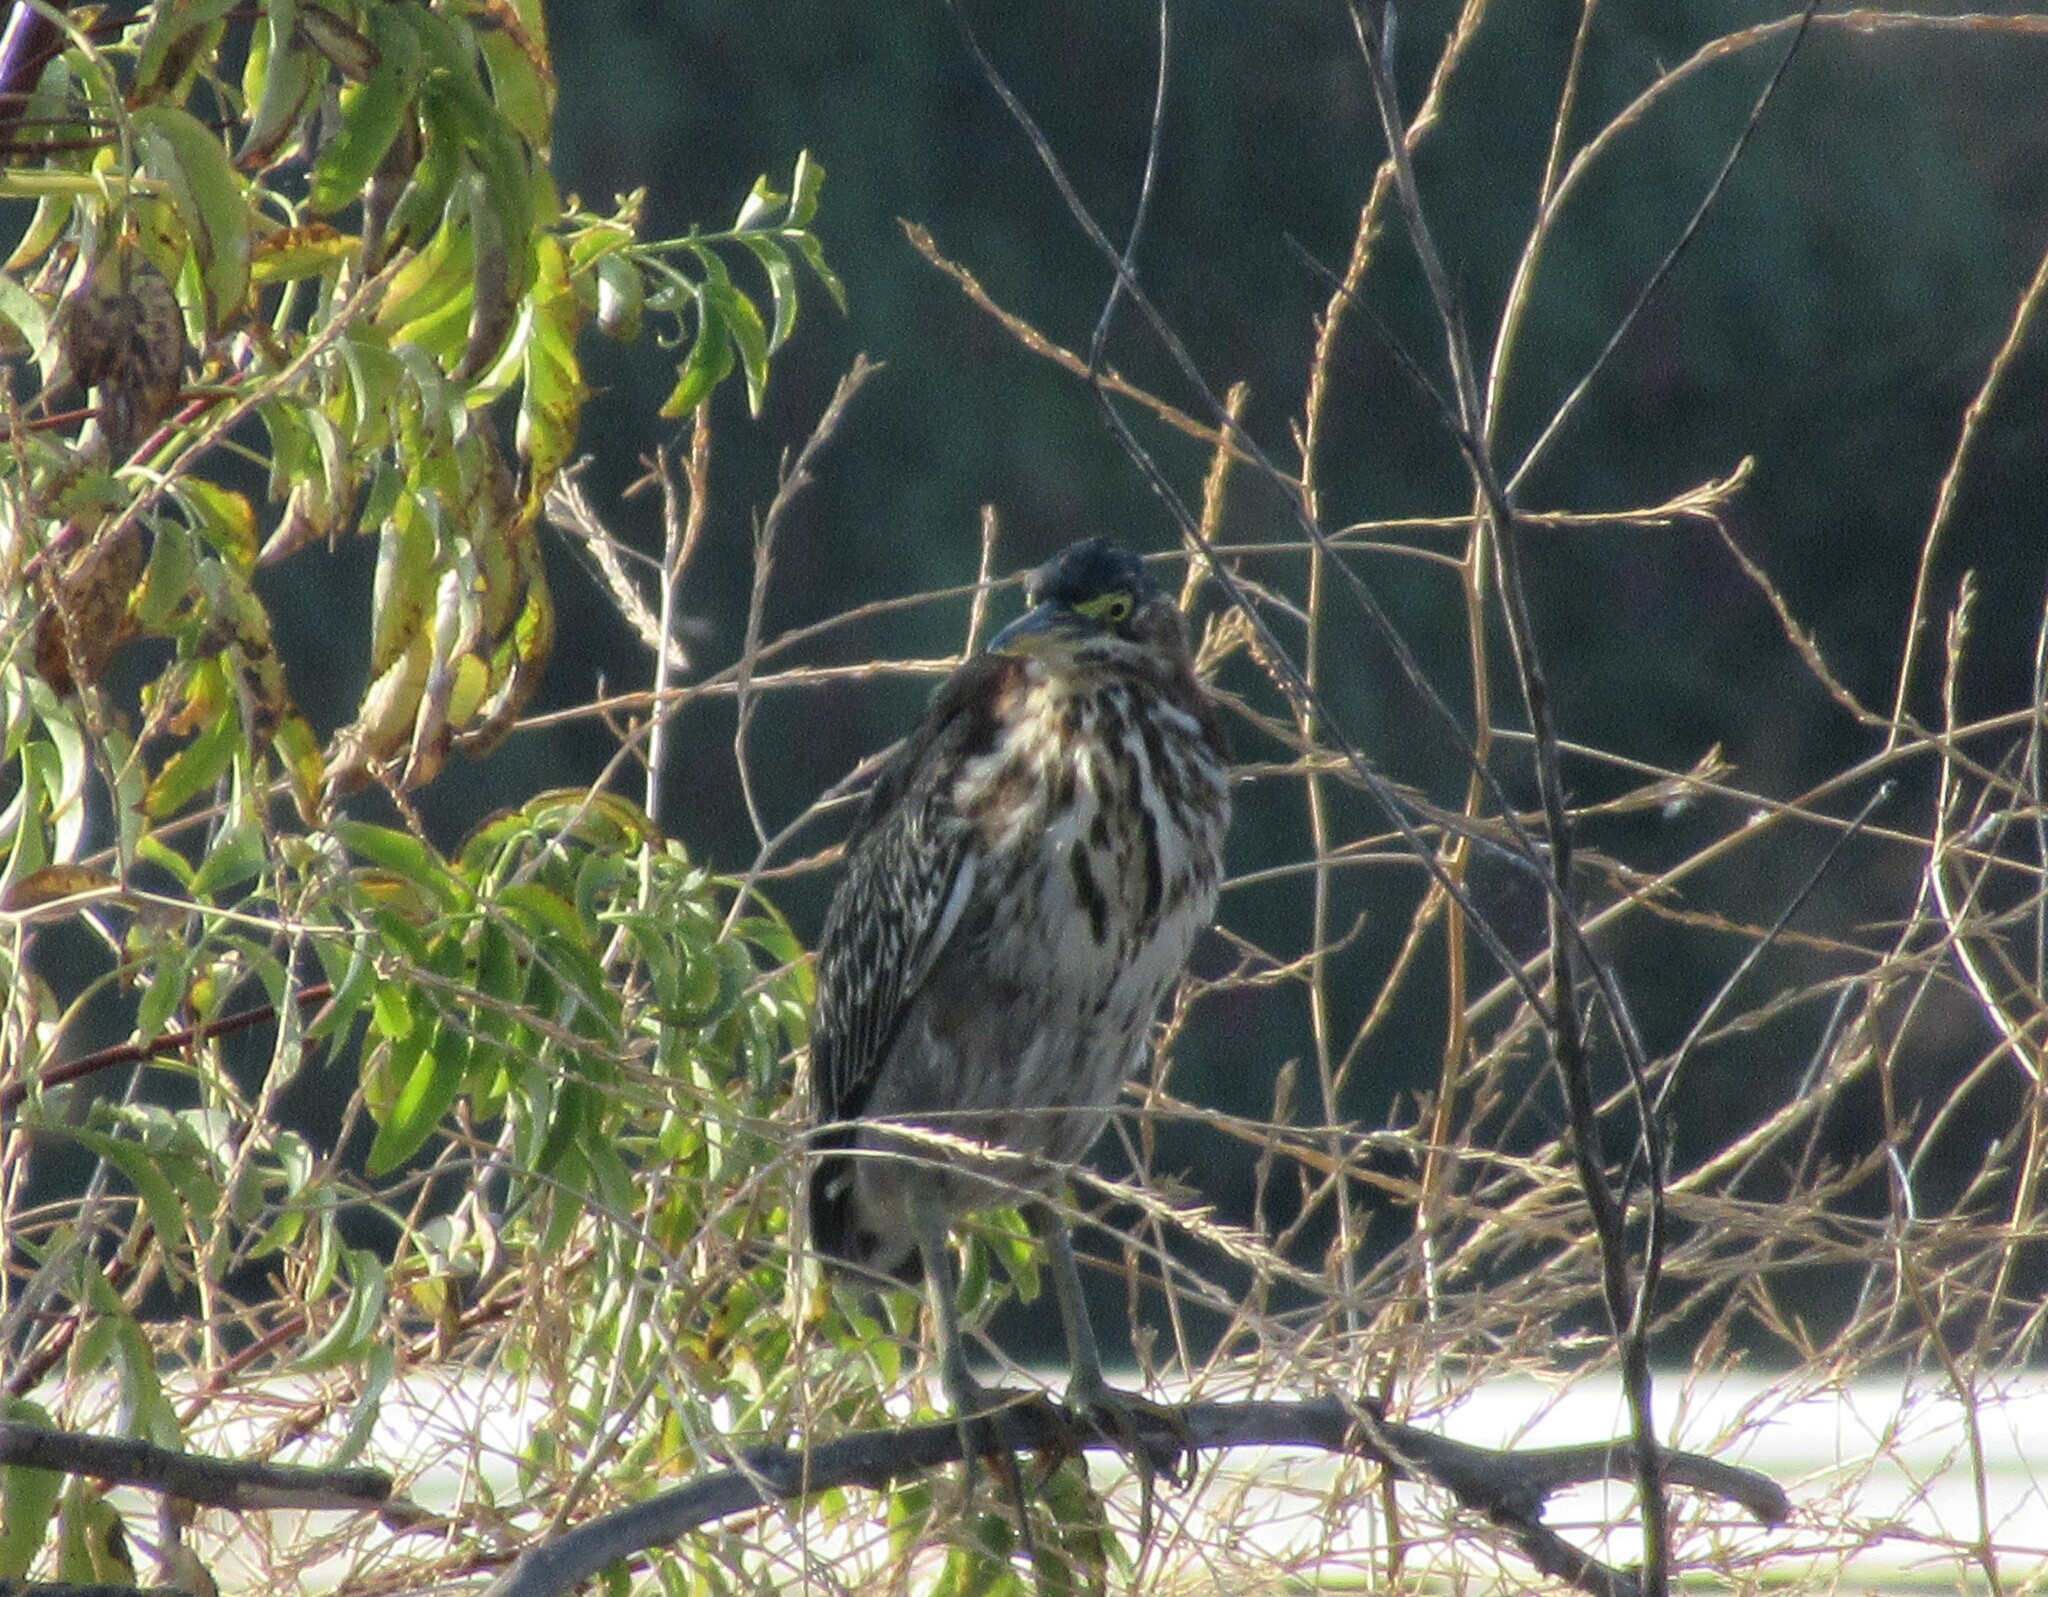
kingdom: Animalia
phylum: Chordata
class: Aves
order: Pelecaniformes
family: Ardeidae
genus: Butorides
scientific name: Butorides virescens
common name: Green heron
